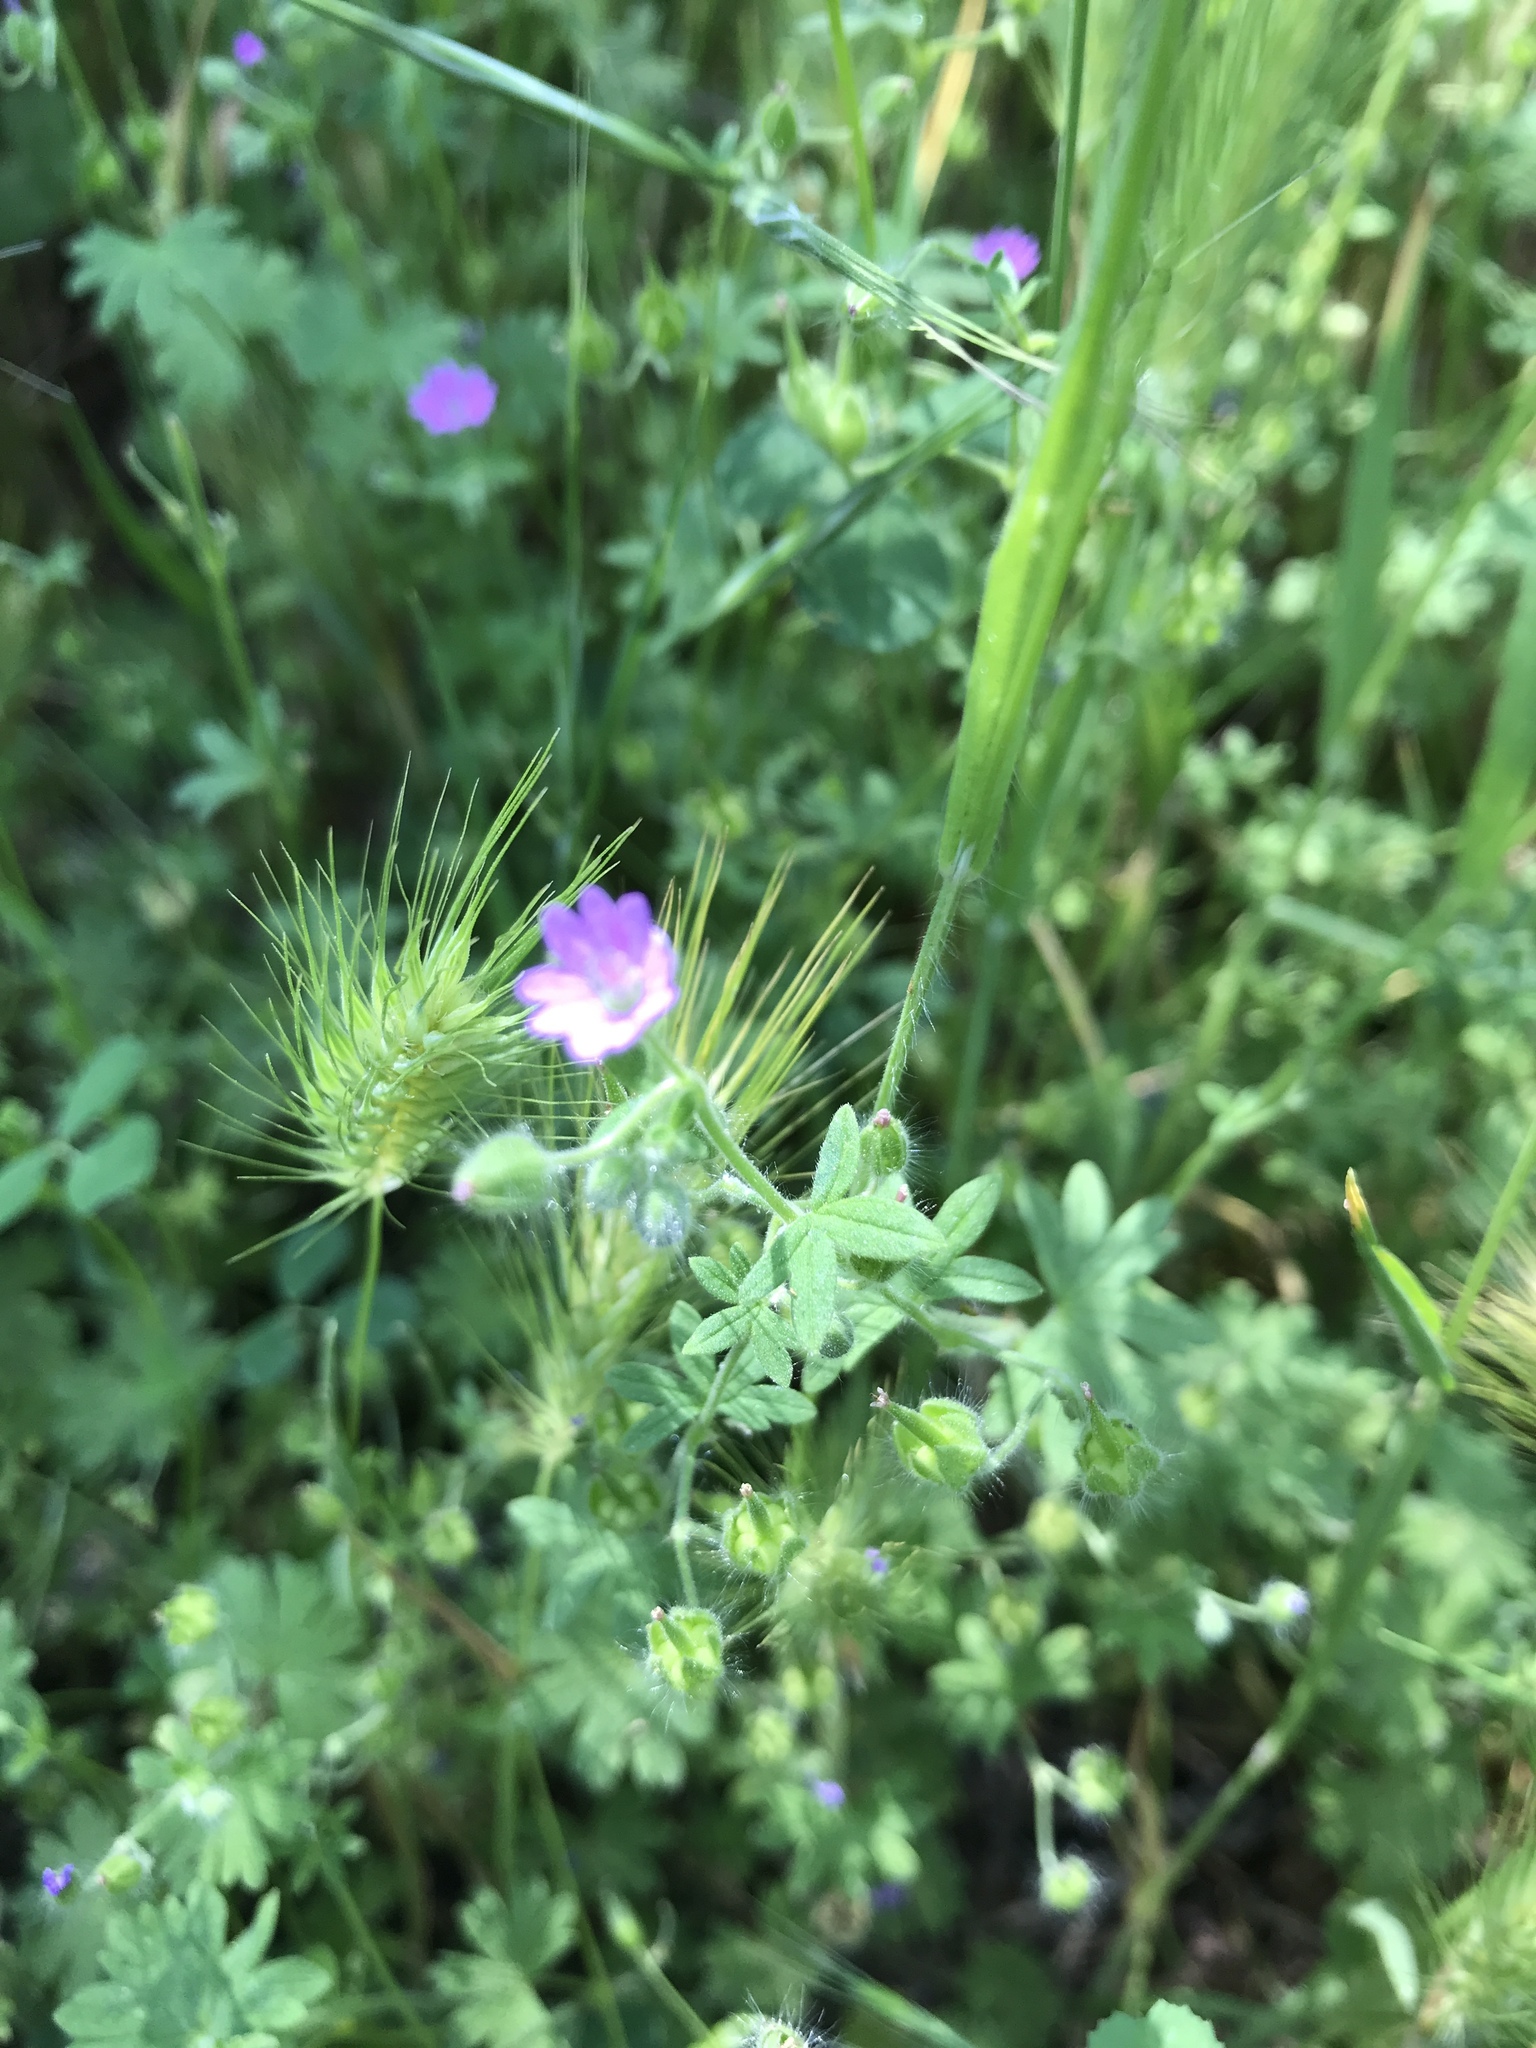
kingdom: Plantae
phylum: Tracheophyta
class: Magnoliopsida
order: Geraniales
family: Geraniaceae
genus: Geranium
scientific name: Geranium molle
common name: Dove's-foot crane's-bill
